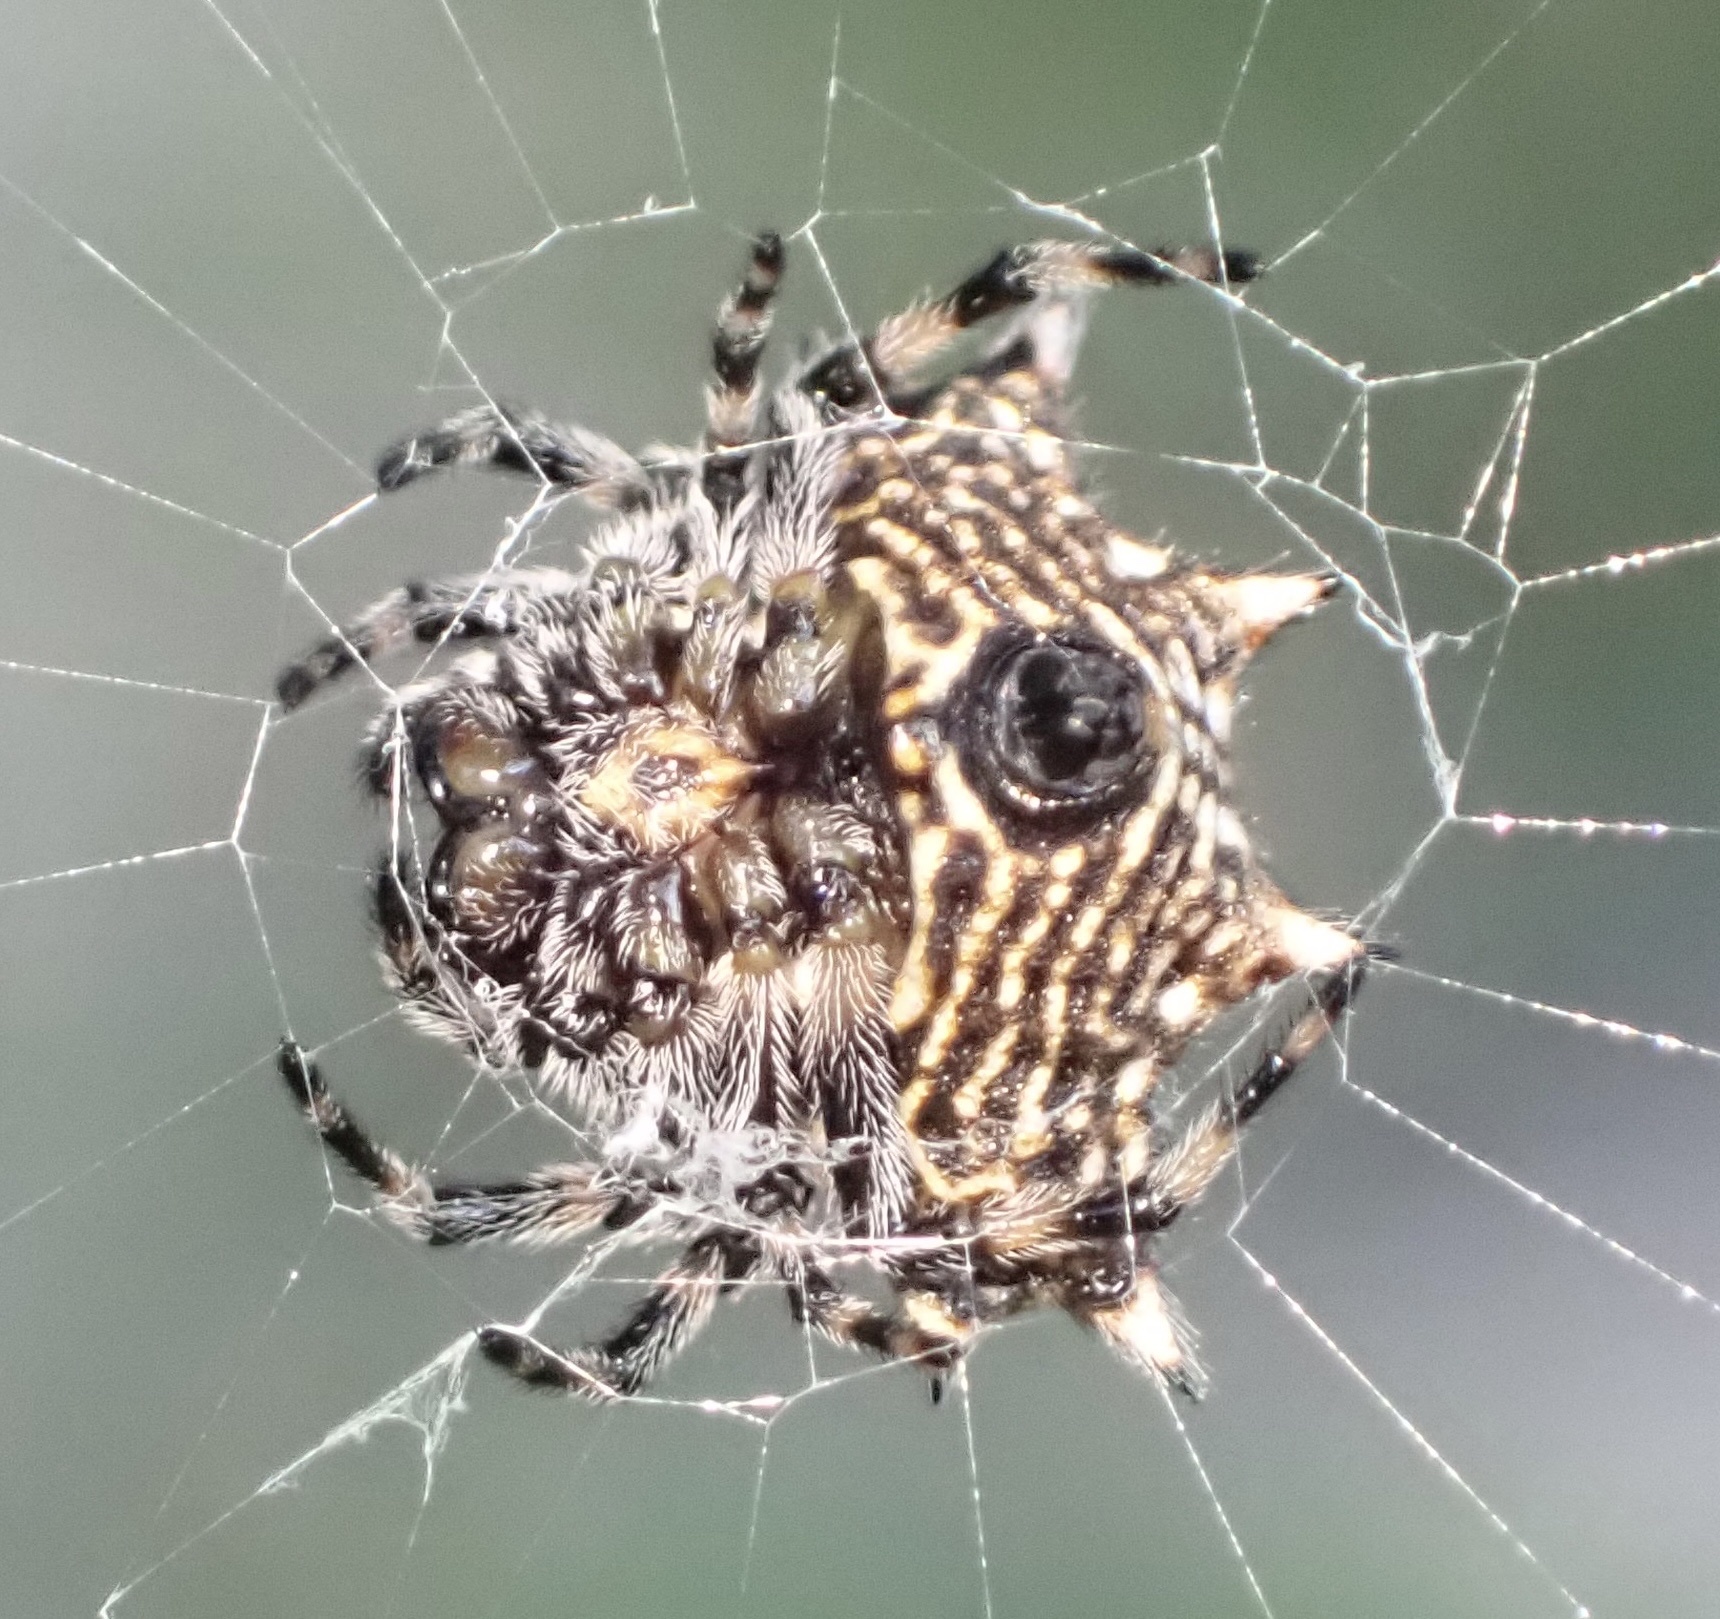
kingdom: Animalia
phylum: Arthropoda
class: Arachnida
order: Araneae
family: Araneidae
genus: Gasteracantha
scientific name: Gasteracantha cancriformis
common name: Orb weavers
